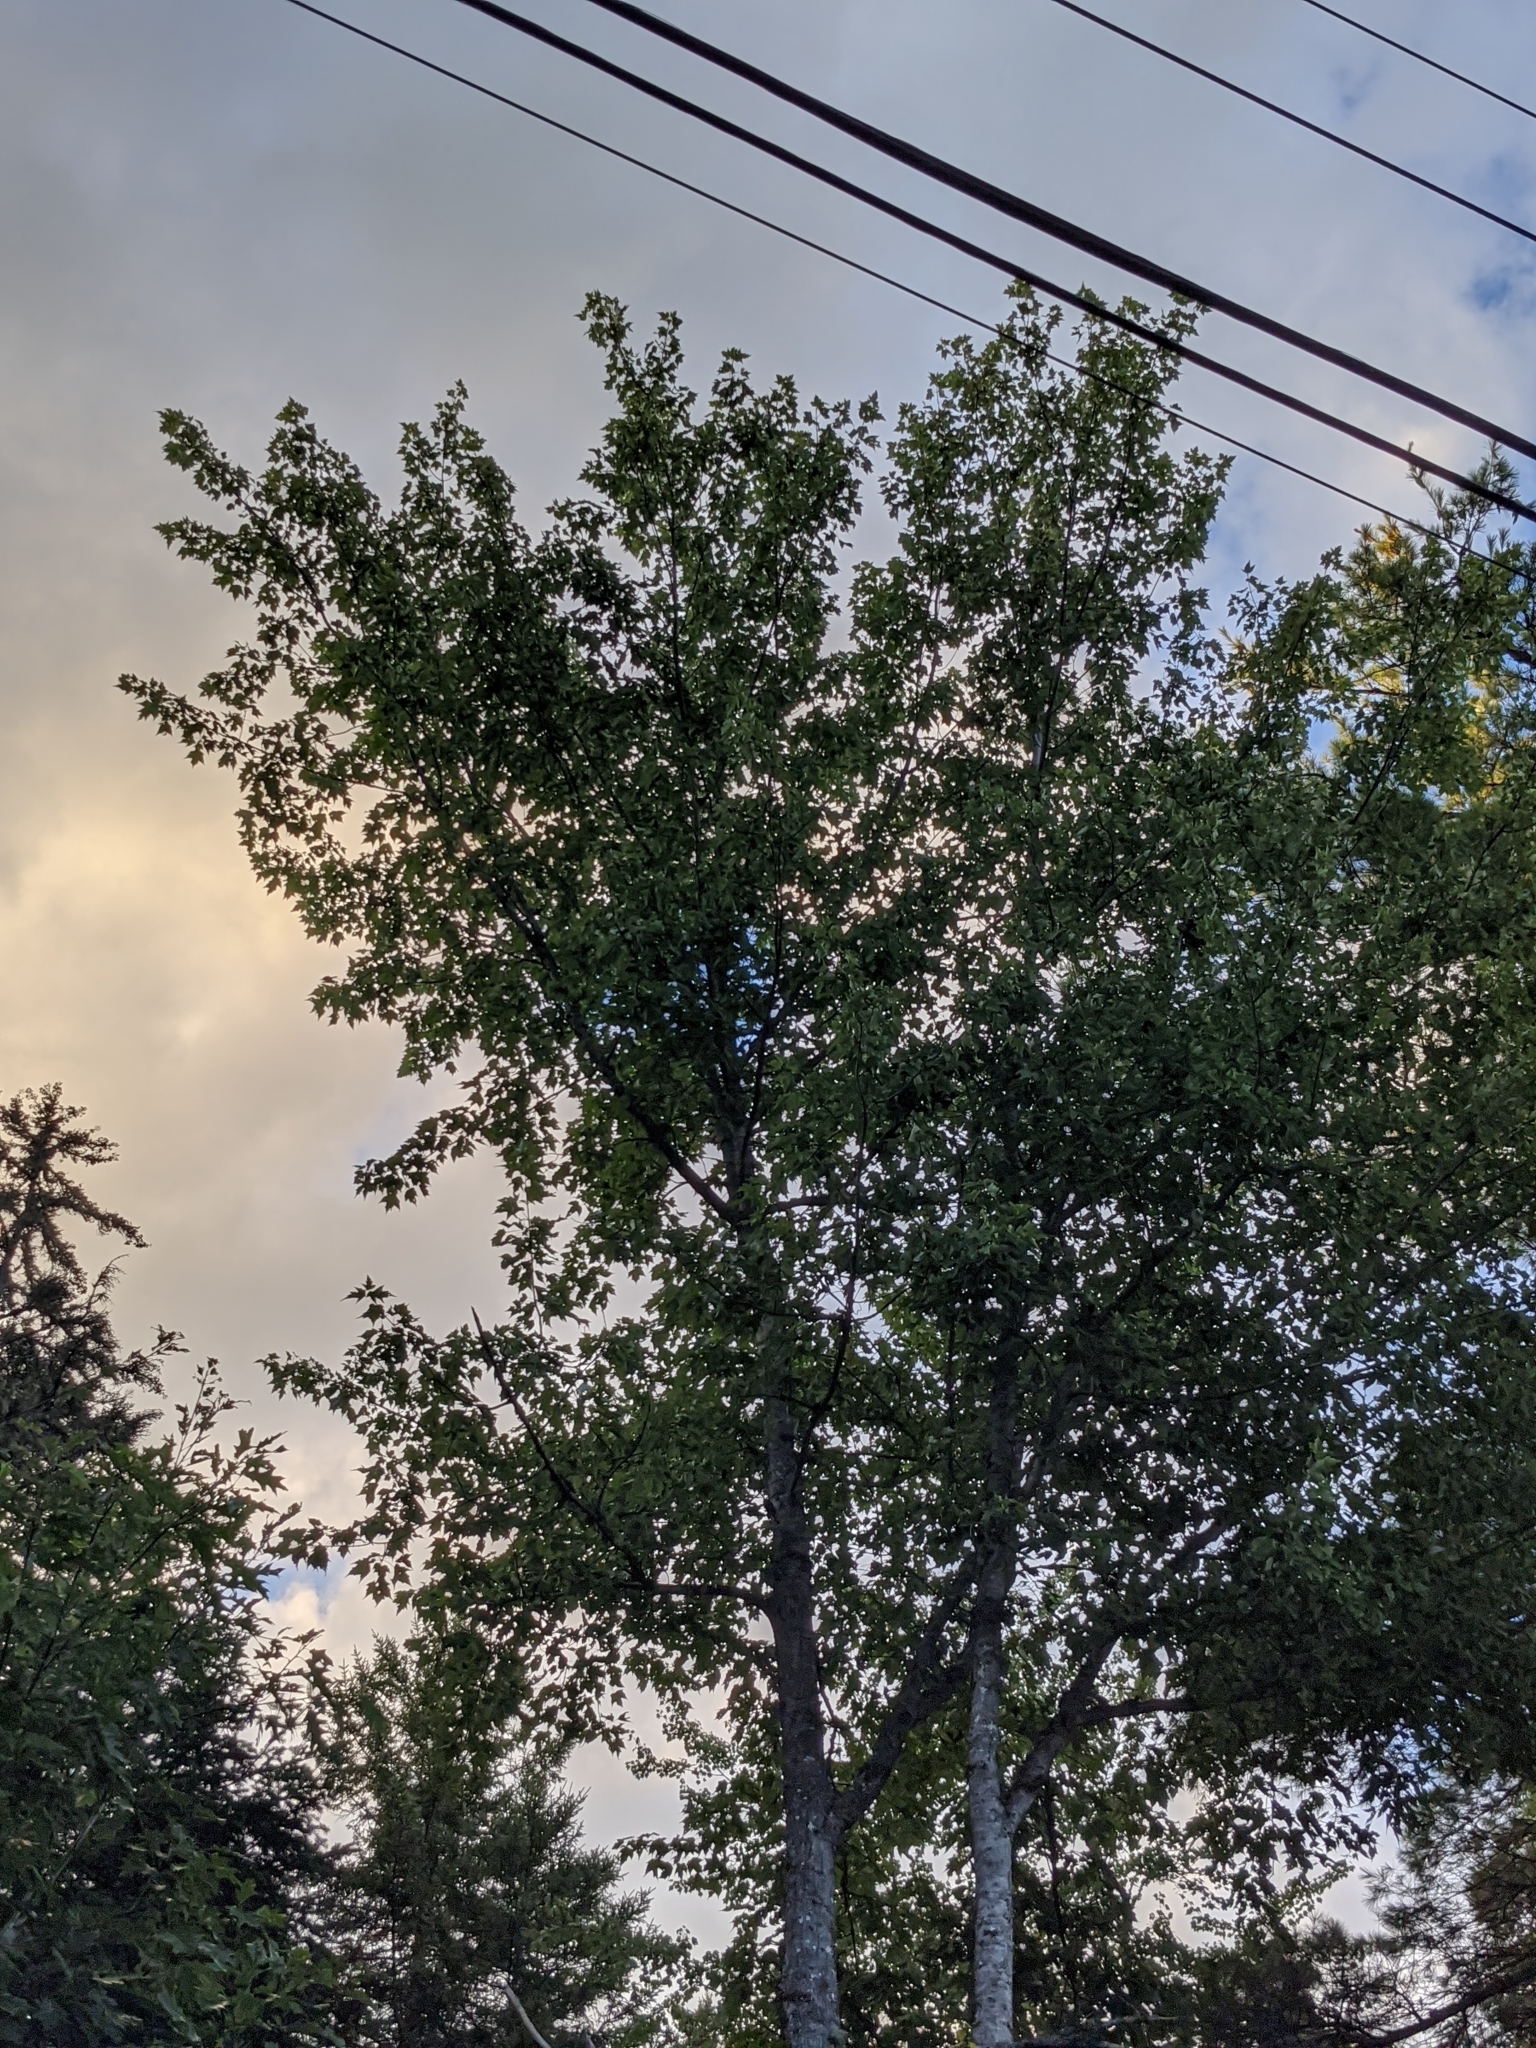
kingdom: Plantae
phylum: Tracheophyta
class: Magnoliopsida
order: Sapindales
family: Sapindaceae
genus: Acer
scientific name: Acer rubrum
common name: Red maple
